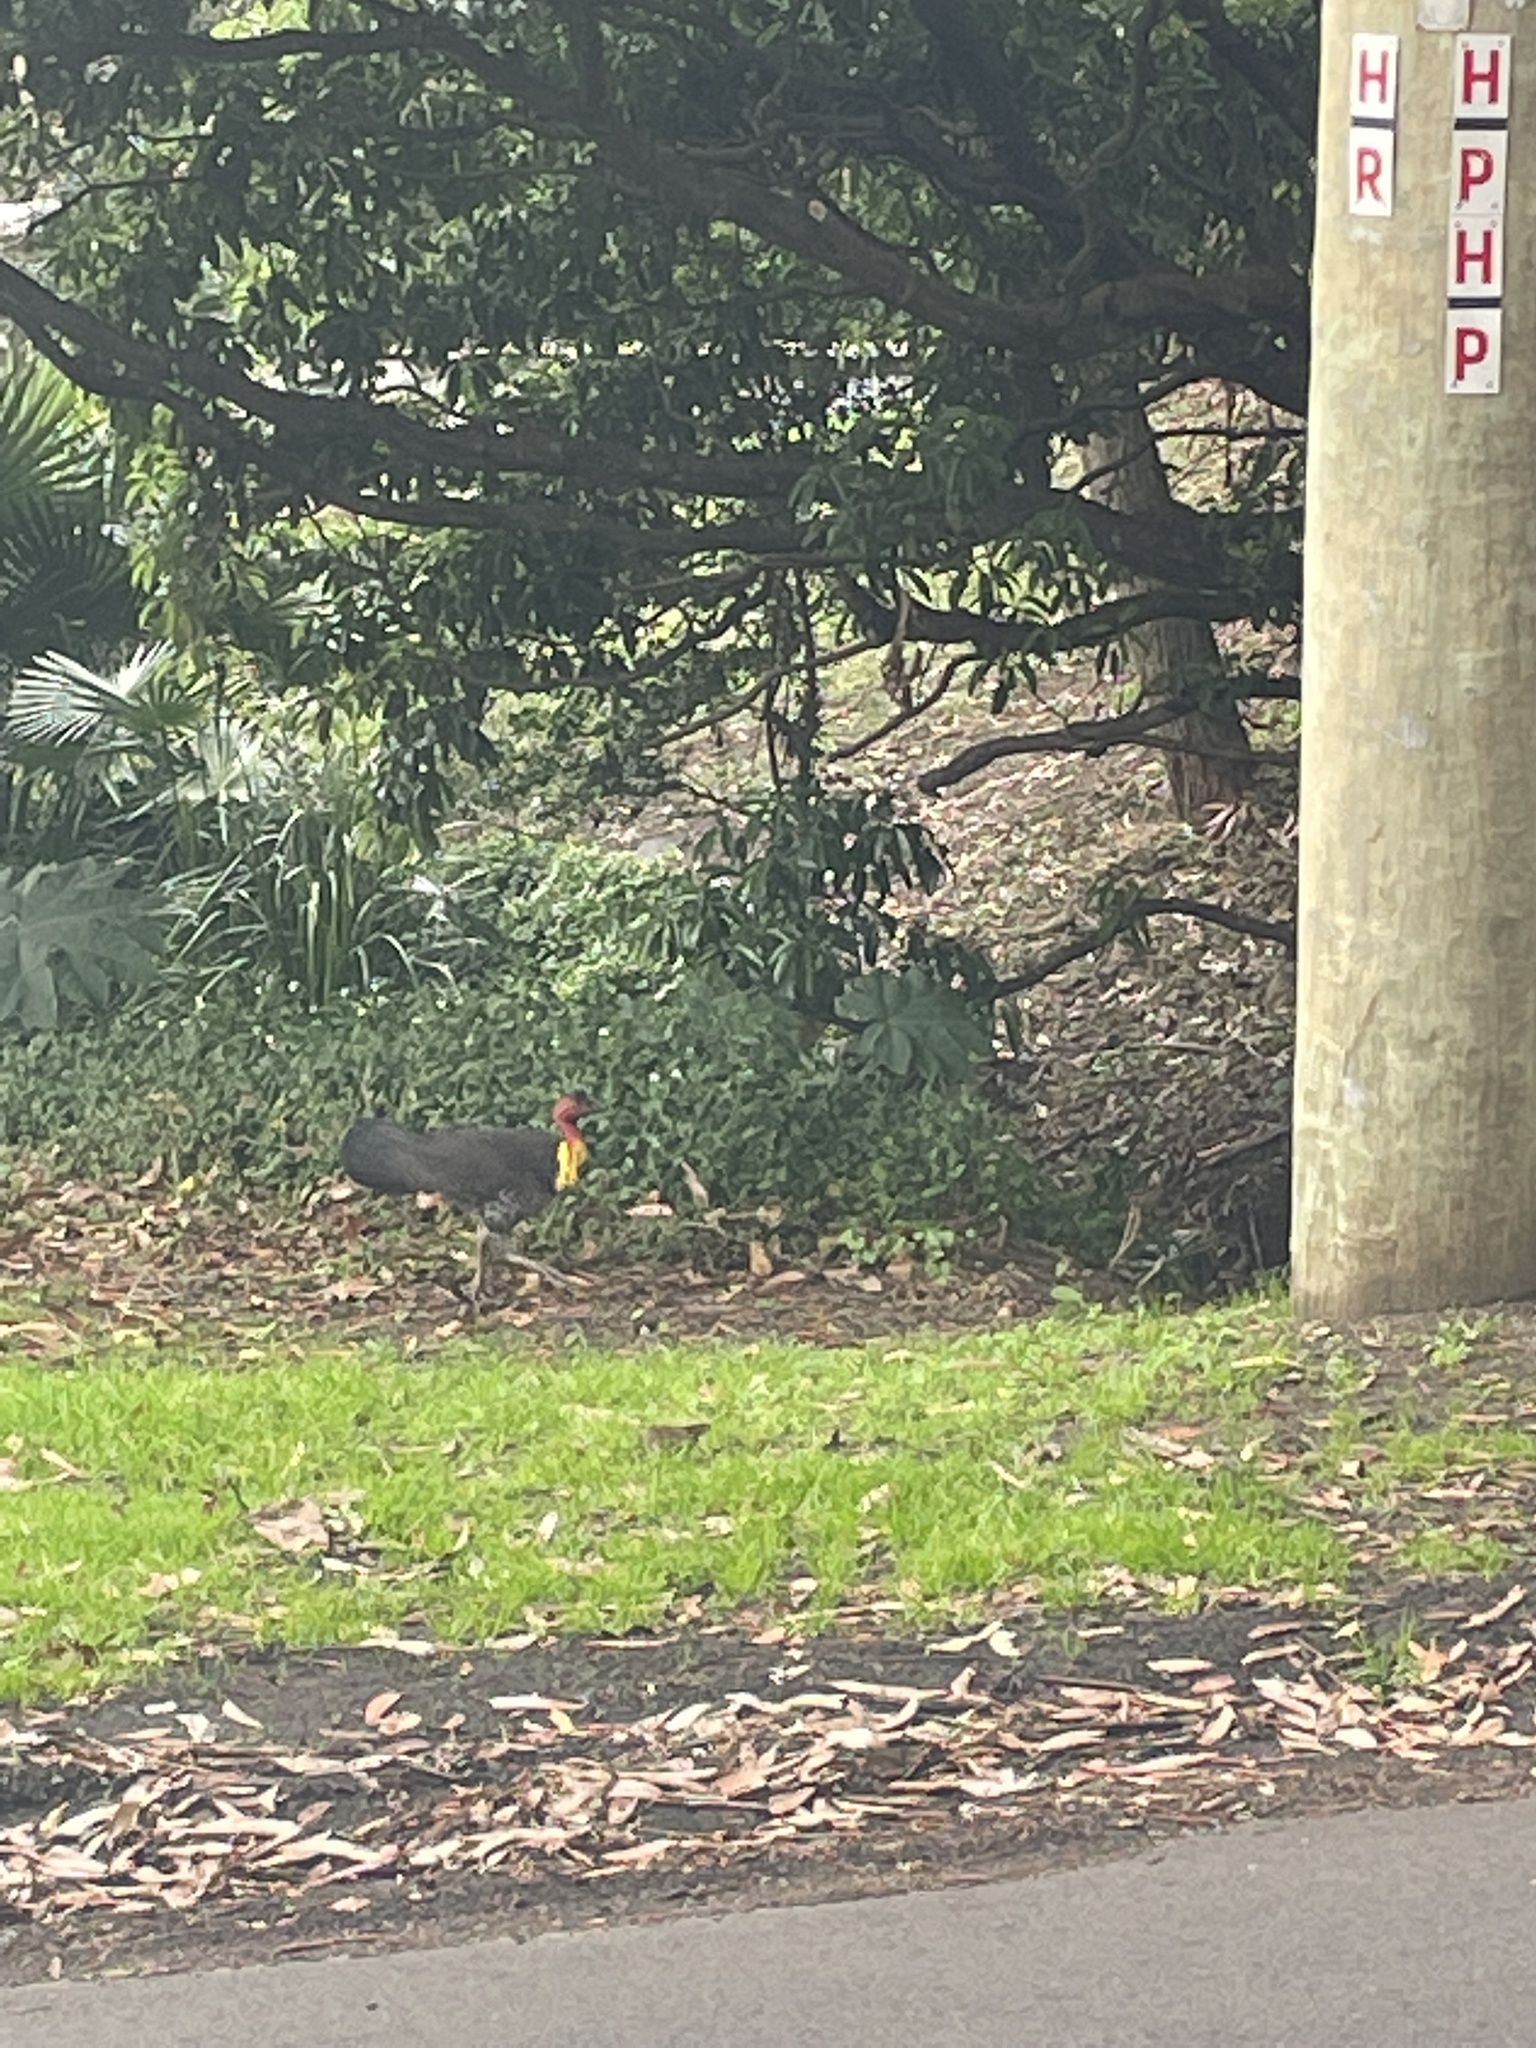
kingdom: Animalia
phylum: Chordata
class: Aves
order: Galliformes
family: Megapodiidae
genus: Alectura
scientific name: Alectura lathami
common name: Australian brushturkey
